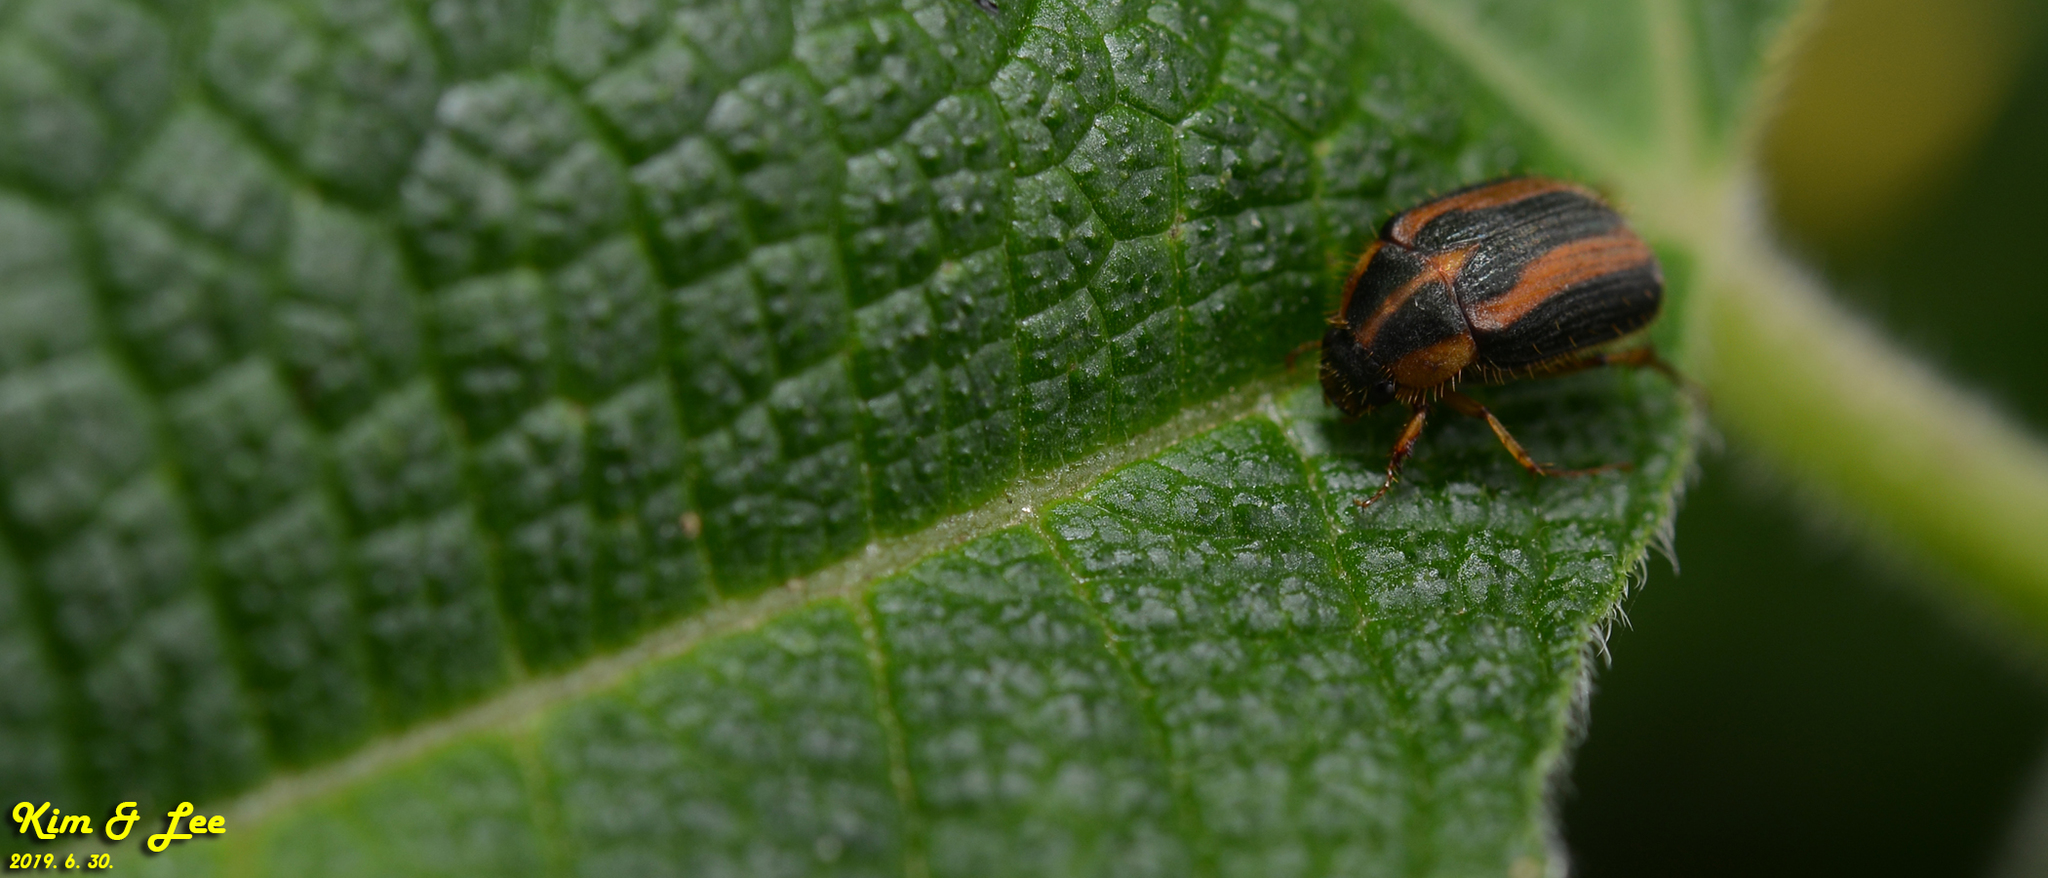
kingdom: Animalia
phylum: Arthropoda
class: Insecta
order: Coleoptera
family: Scarabaeidae
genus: Gastroserica
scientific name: Gastroserica herzi
